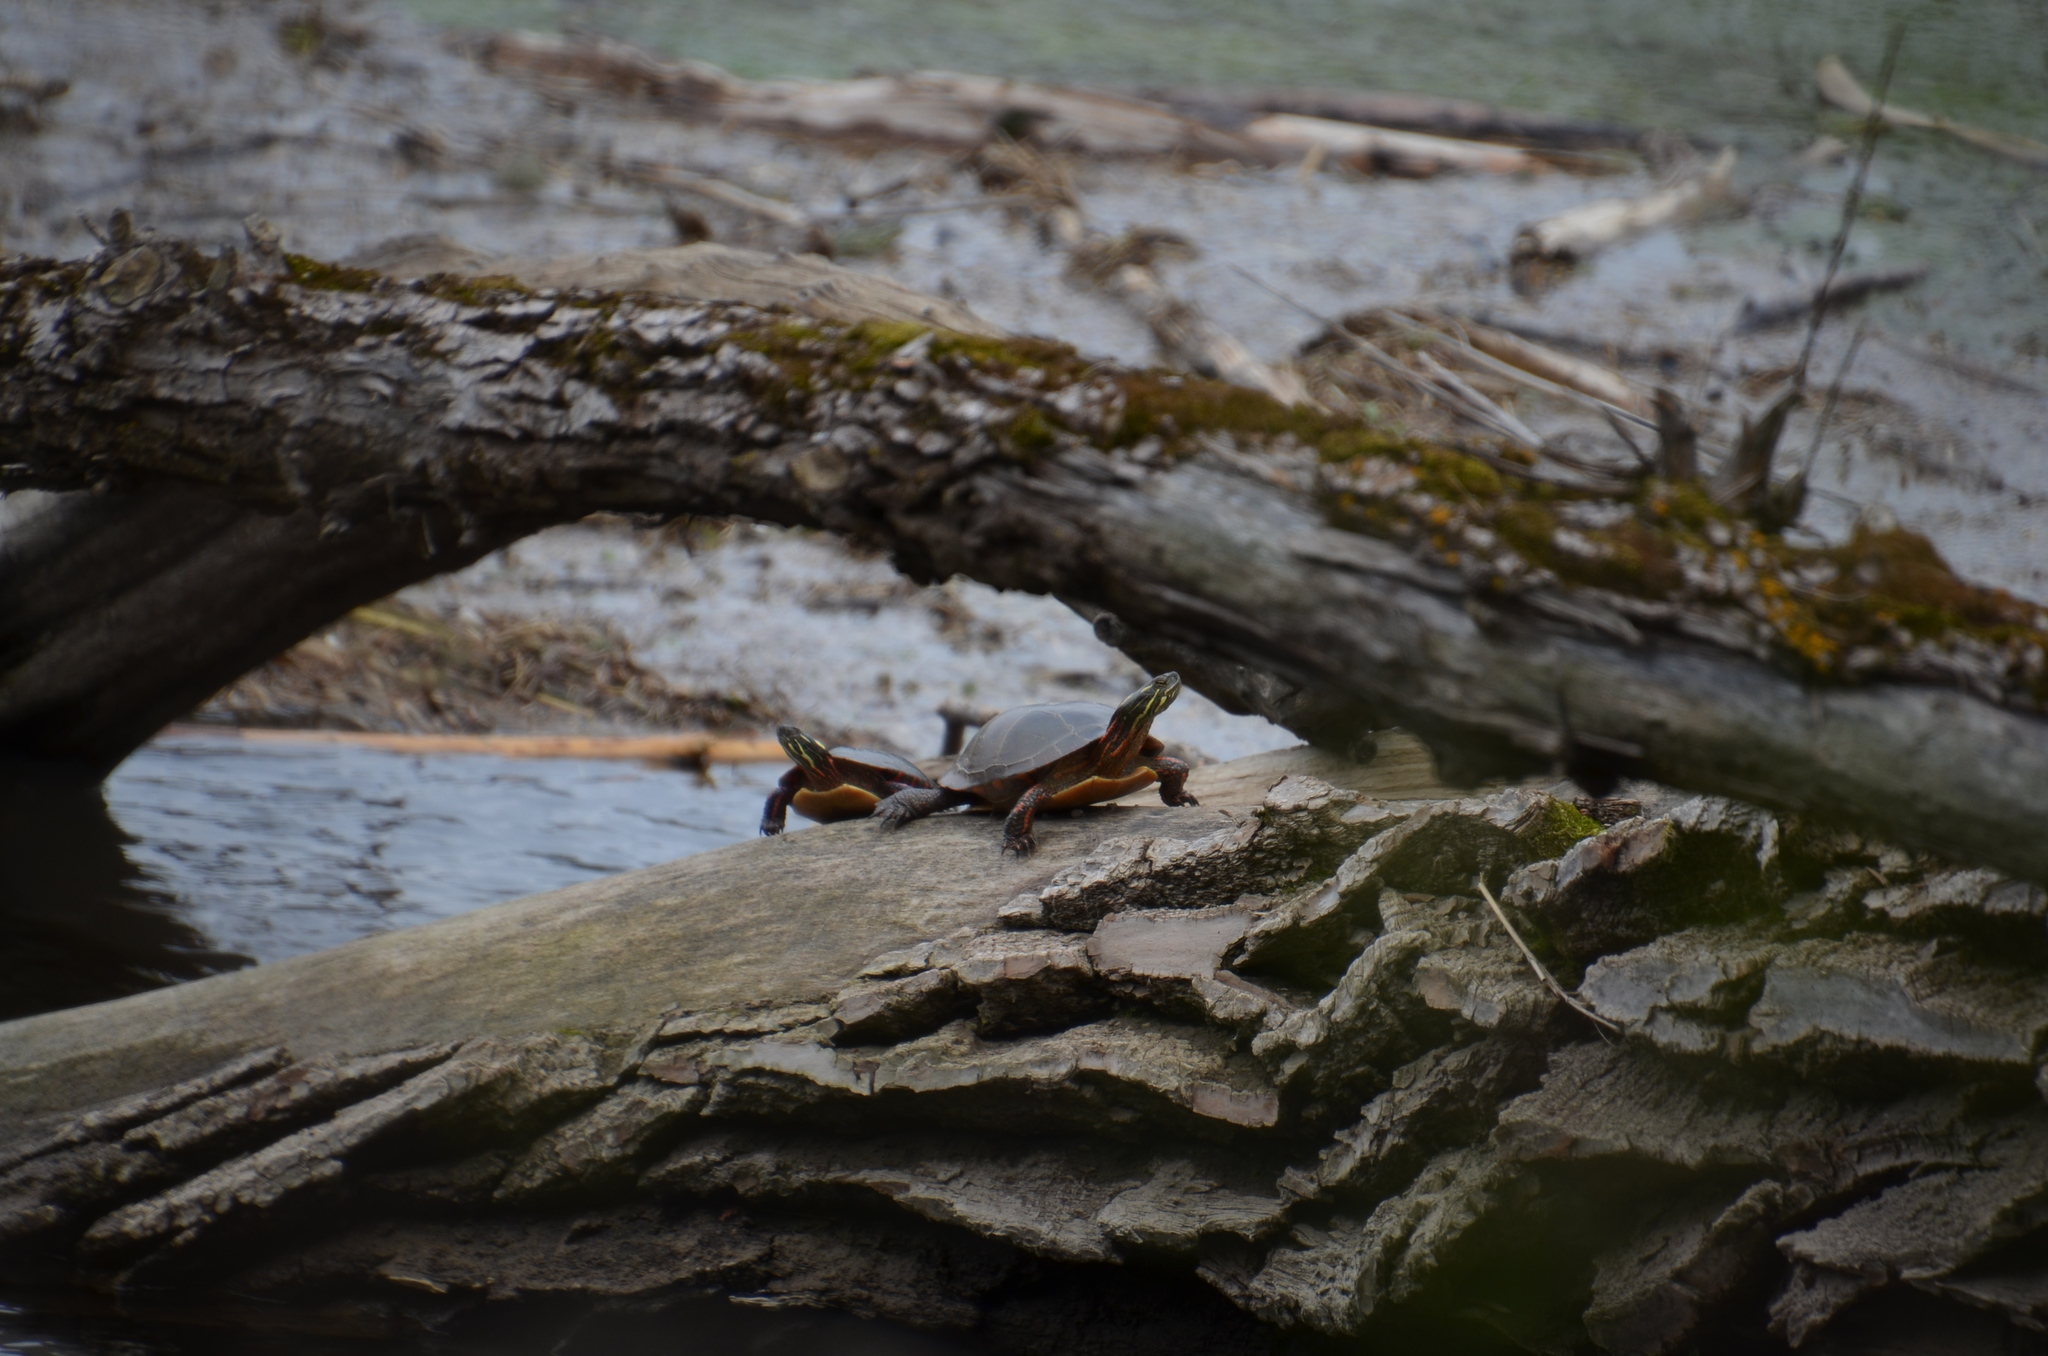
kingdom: Animalia
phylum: Chordata
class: Testudines
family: Emydidae
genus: Chrysemys
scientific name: Chrysemys picta
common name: Painted turtle
